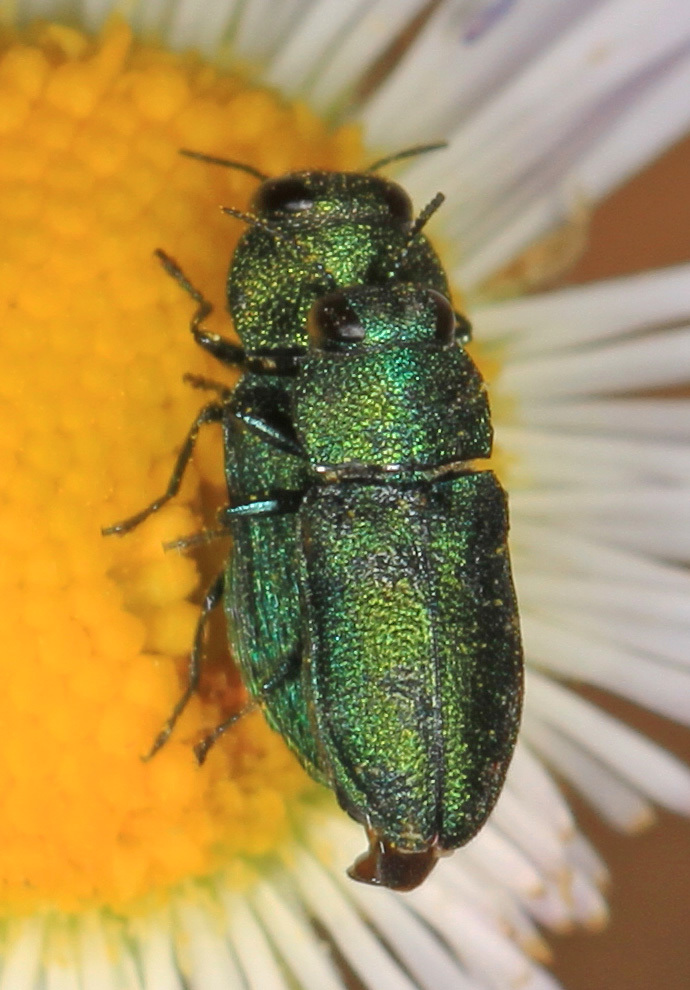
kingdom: Animalia
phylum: Arthropoda
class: Insecta
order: Coleoptera
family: Buprestidae
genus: Anthaxia
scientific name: Anthaxia prasina
